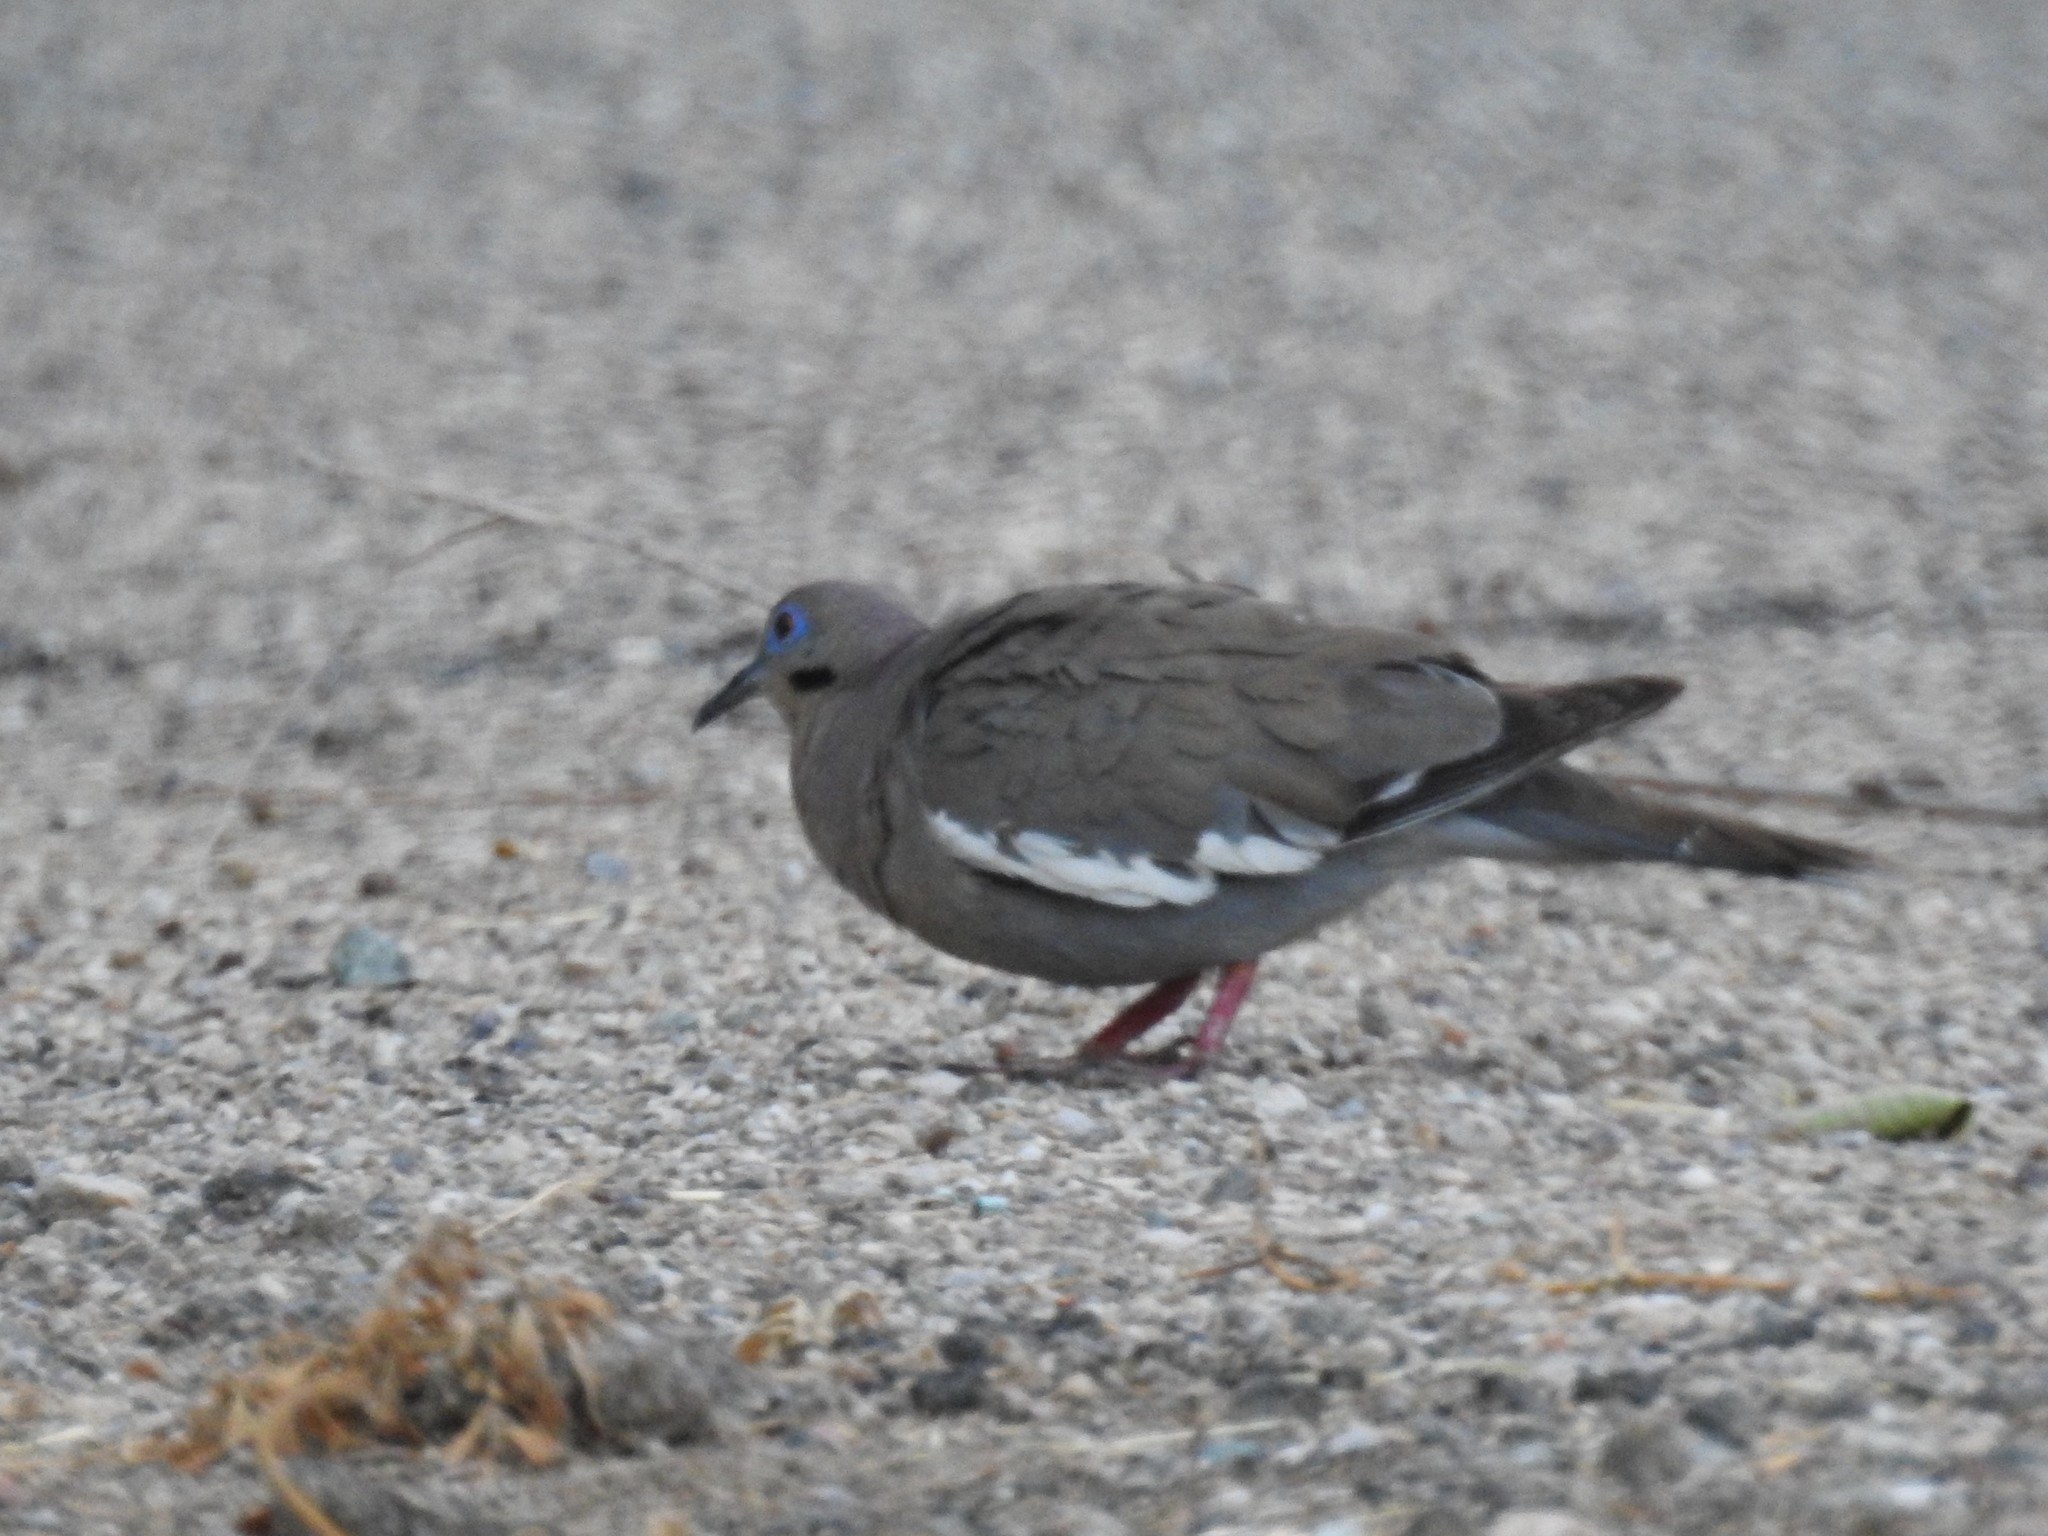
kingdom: Animalia
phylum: Chordata
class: Aves
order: Columbiformes
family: Columbidae
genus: Zenaida
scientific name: Zenaida asiatica
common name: White-winged dove
